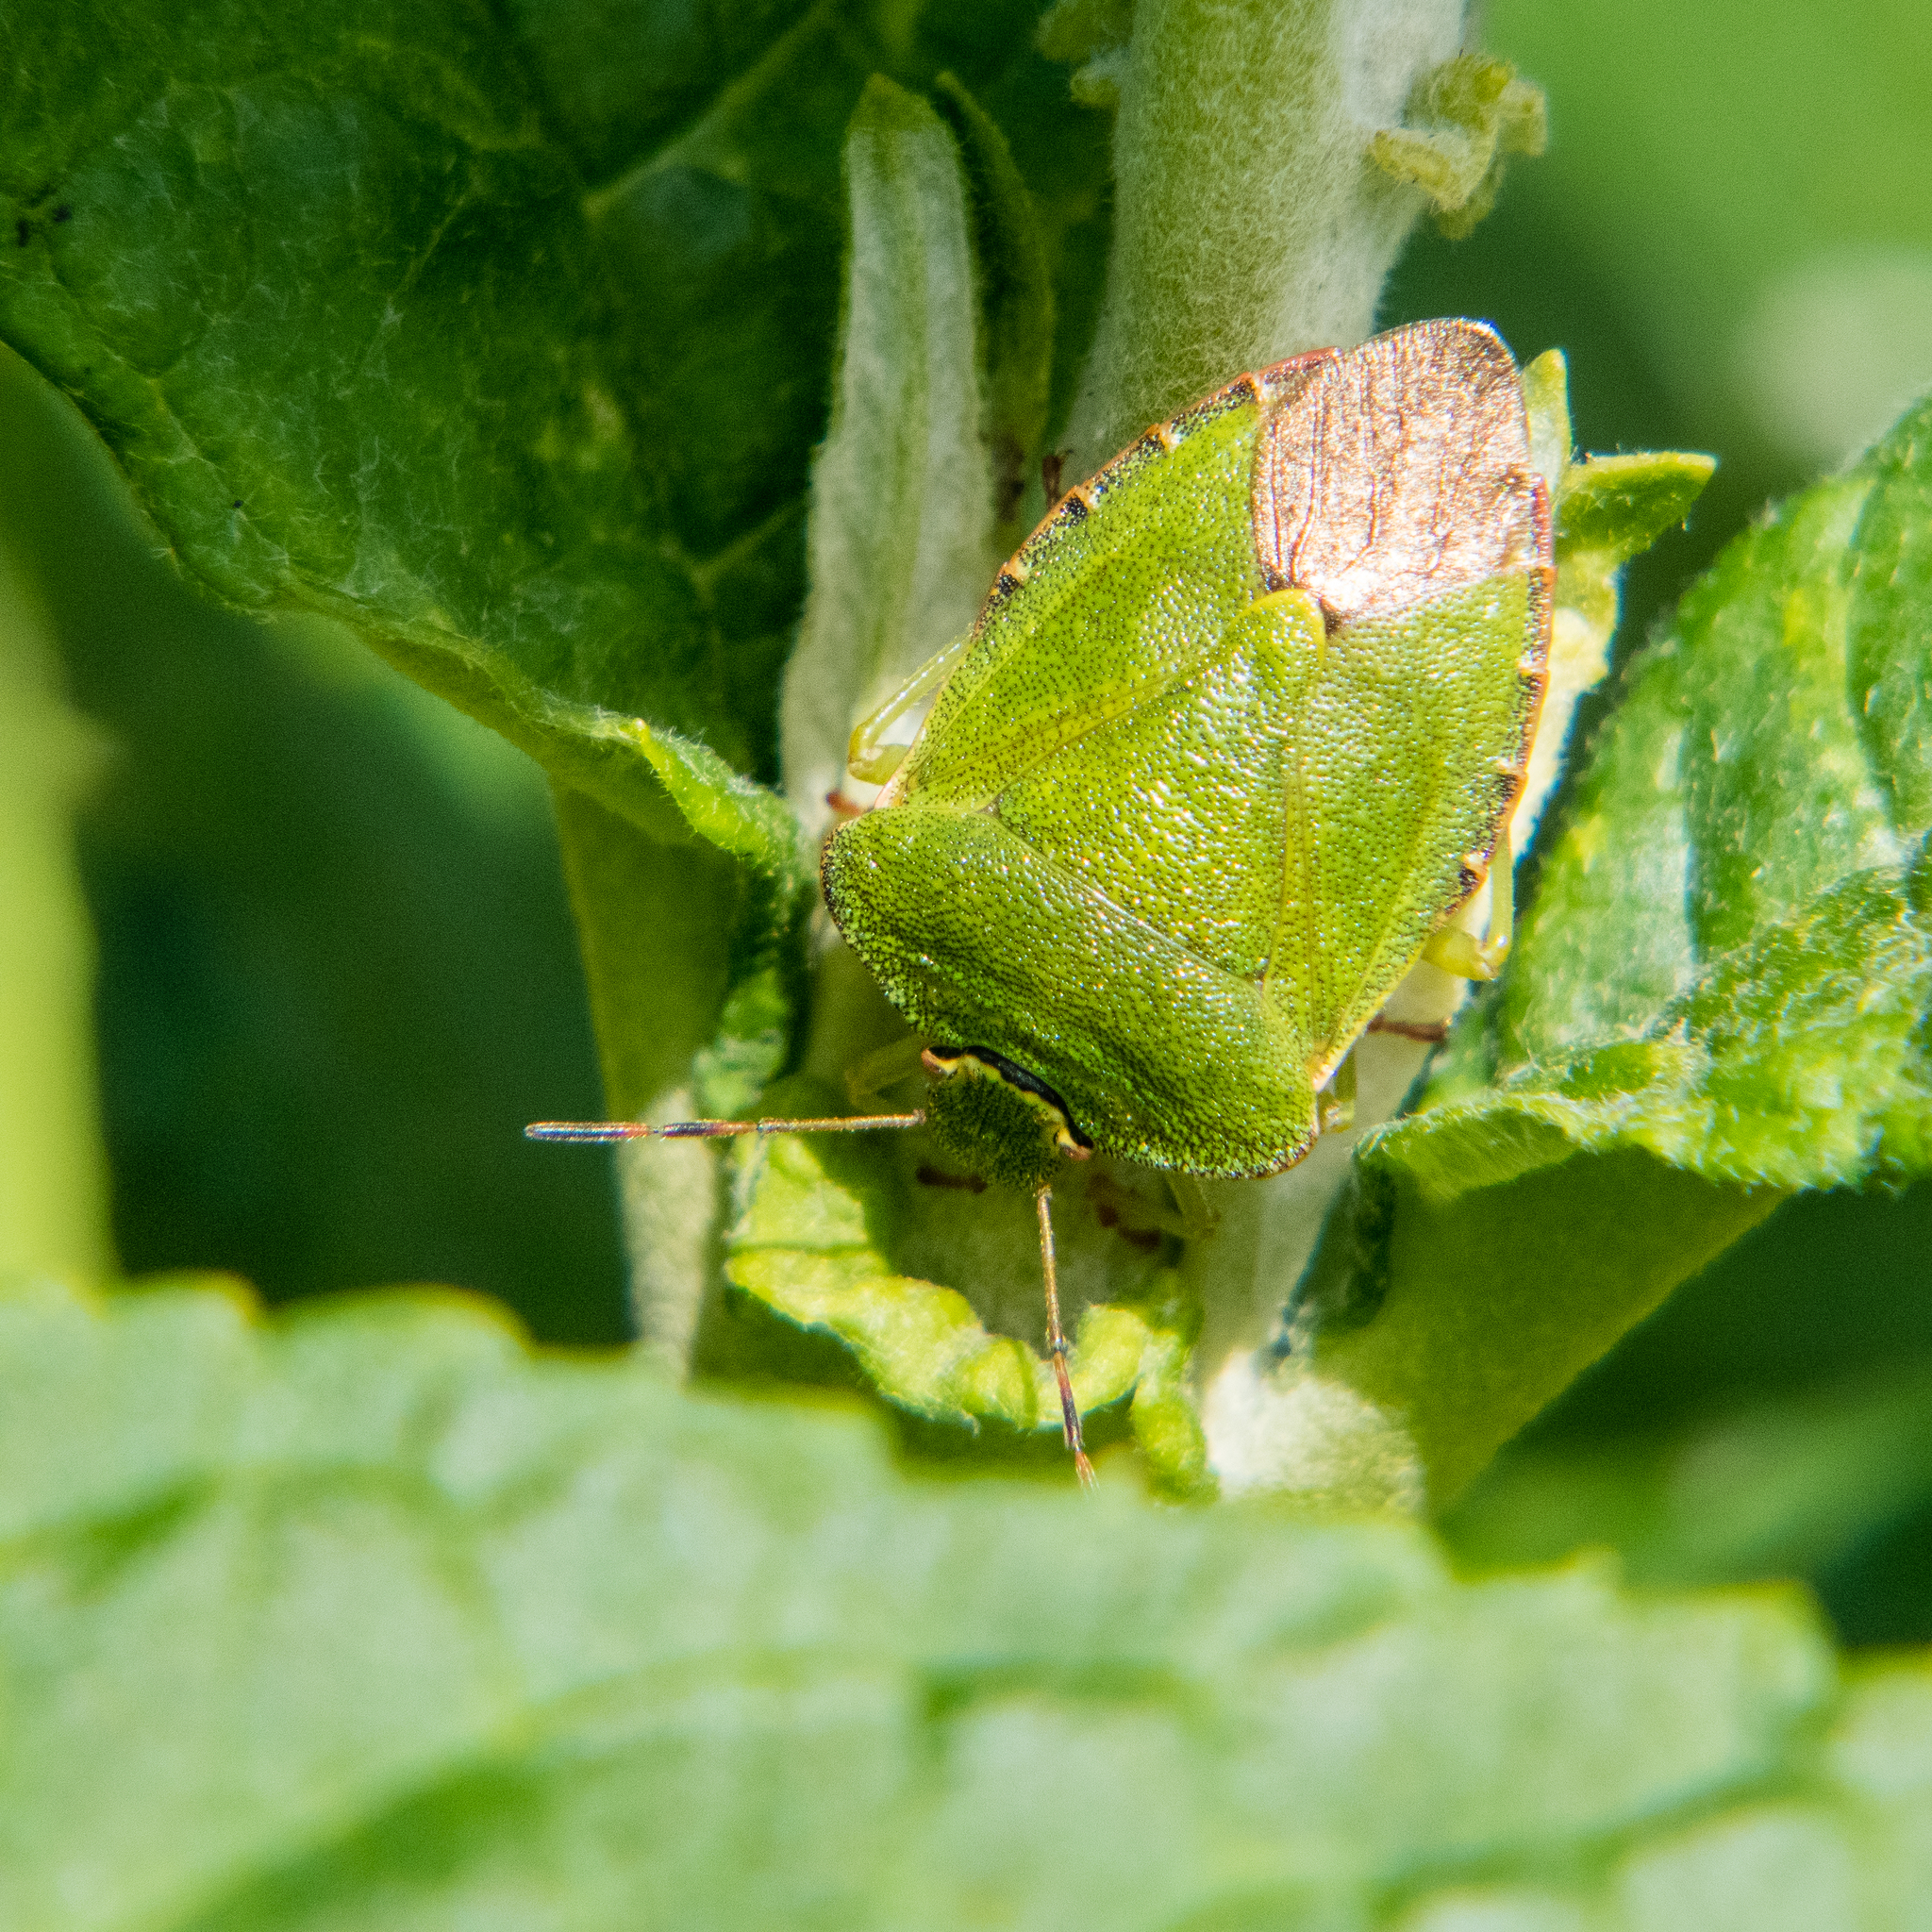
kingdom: Animalia
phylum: Arthropoda
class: Insecta
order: Hemiptera
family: Pentatomidae
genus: Palomena
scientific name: Palomena prasina
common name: Green shieldbug
